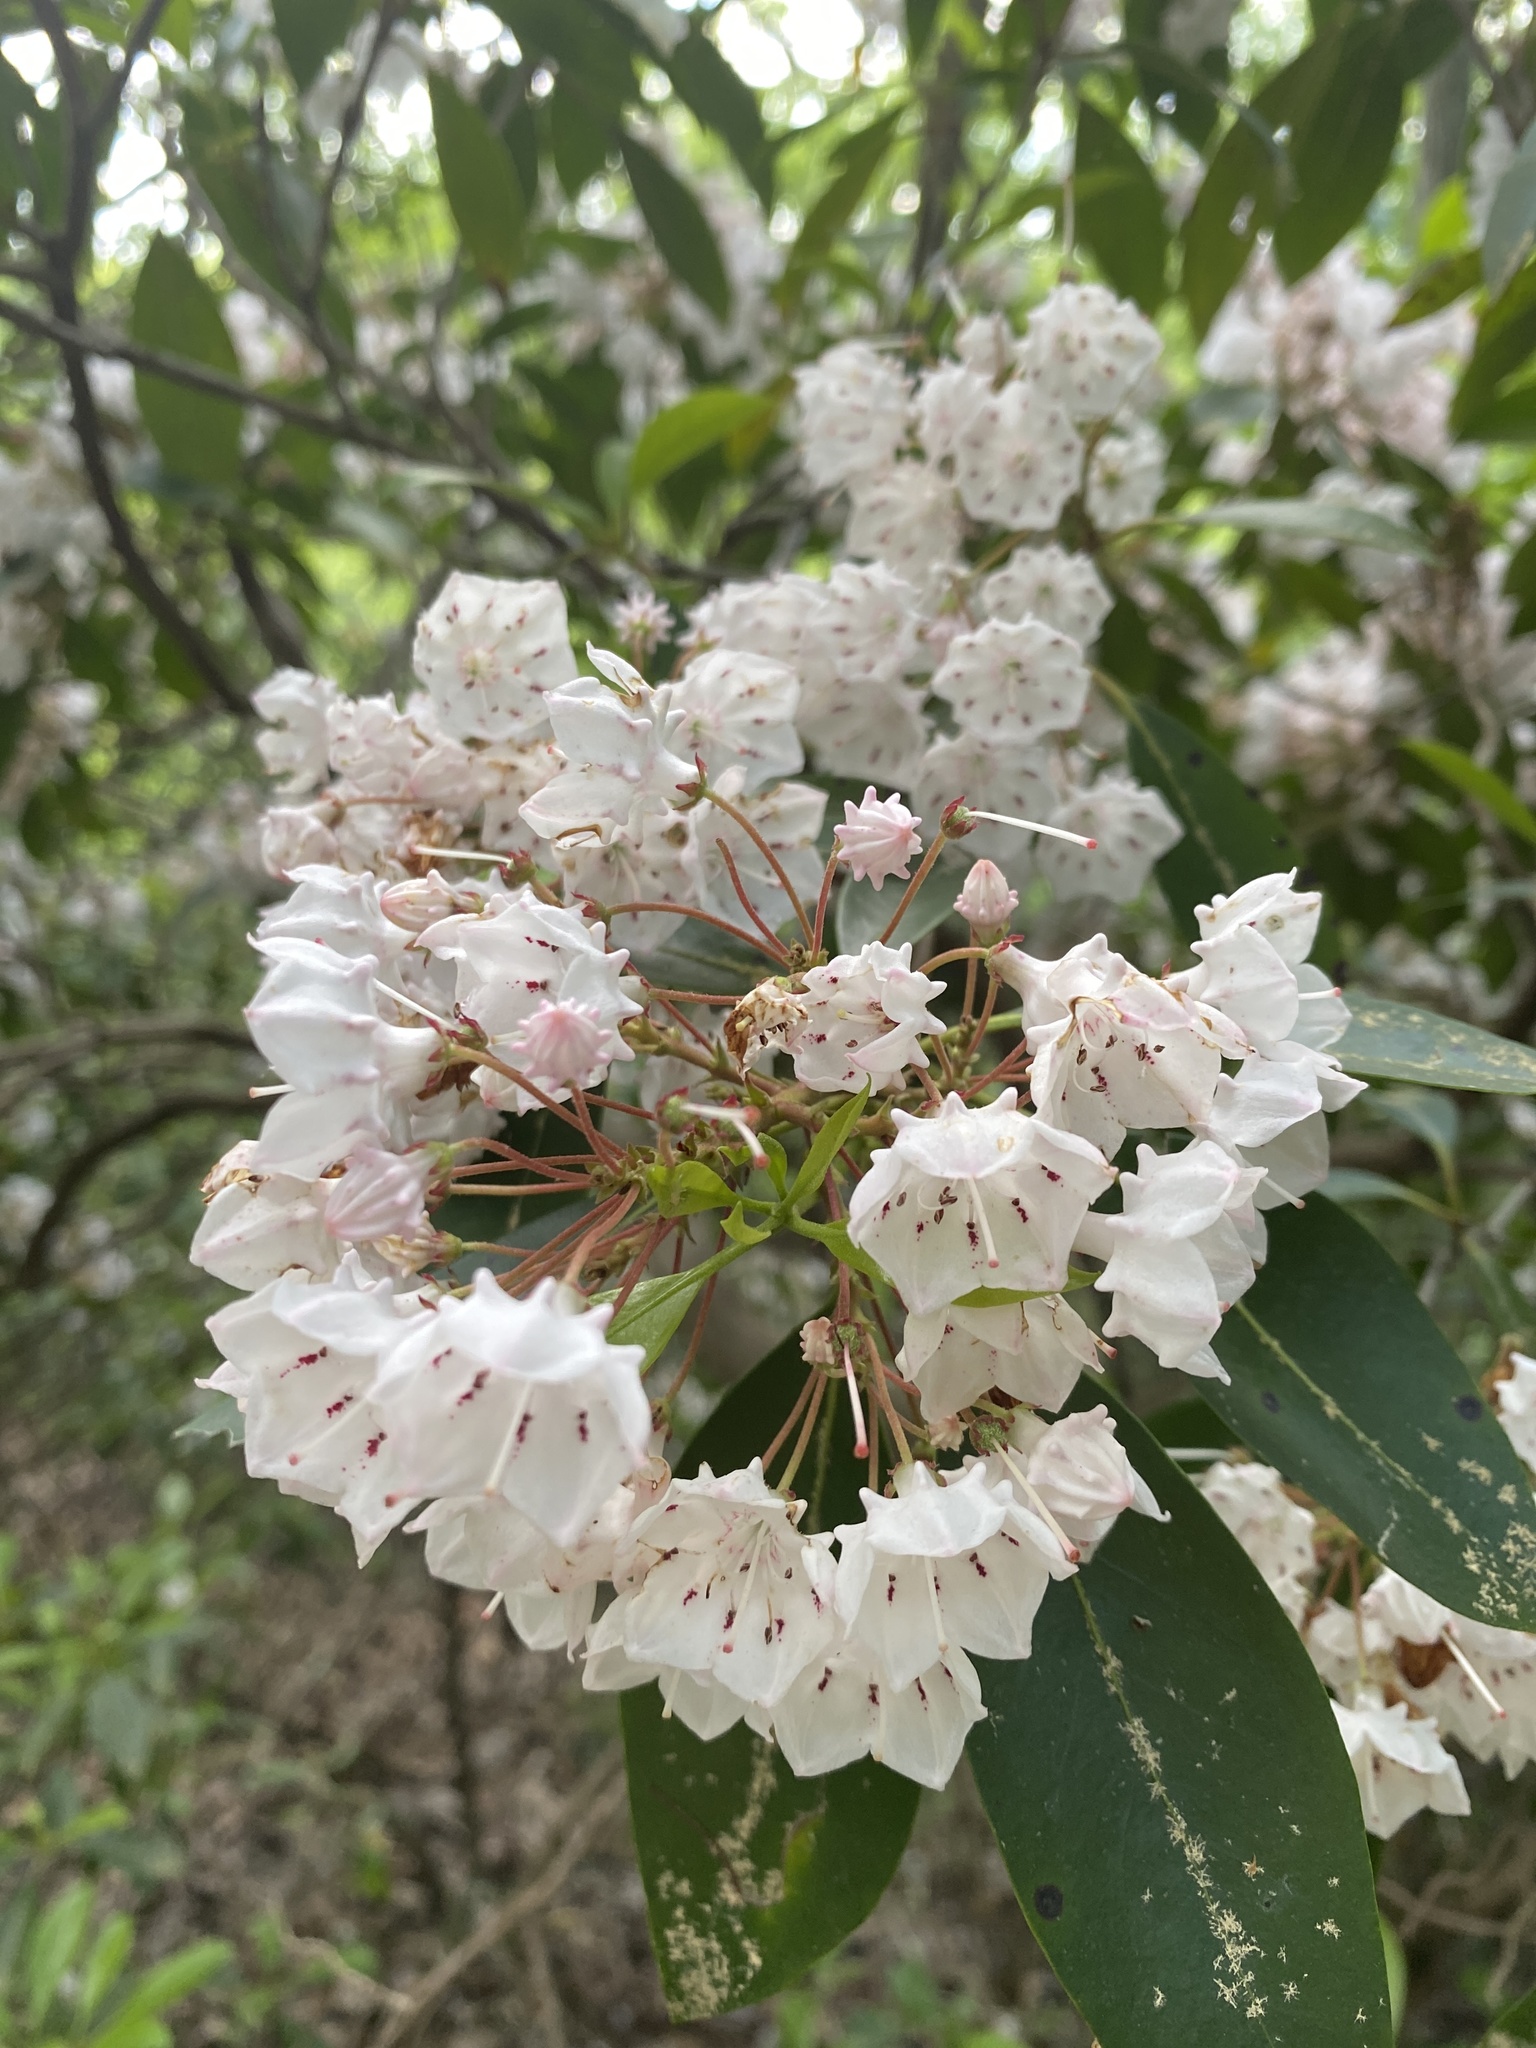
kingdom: Plantae
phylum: Tracheophyta
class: Magnoliopsida
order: Ericales
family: Ericaceae
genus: Kalmia
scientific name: Kalmia latifolia
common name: Mountain-laurel
